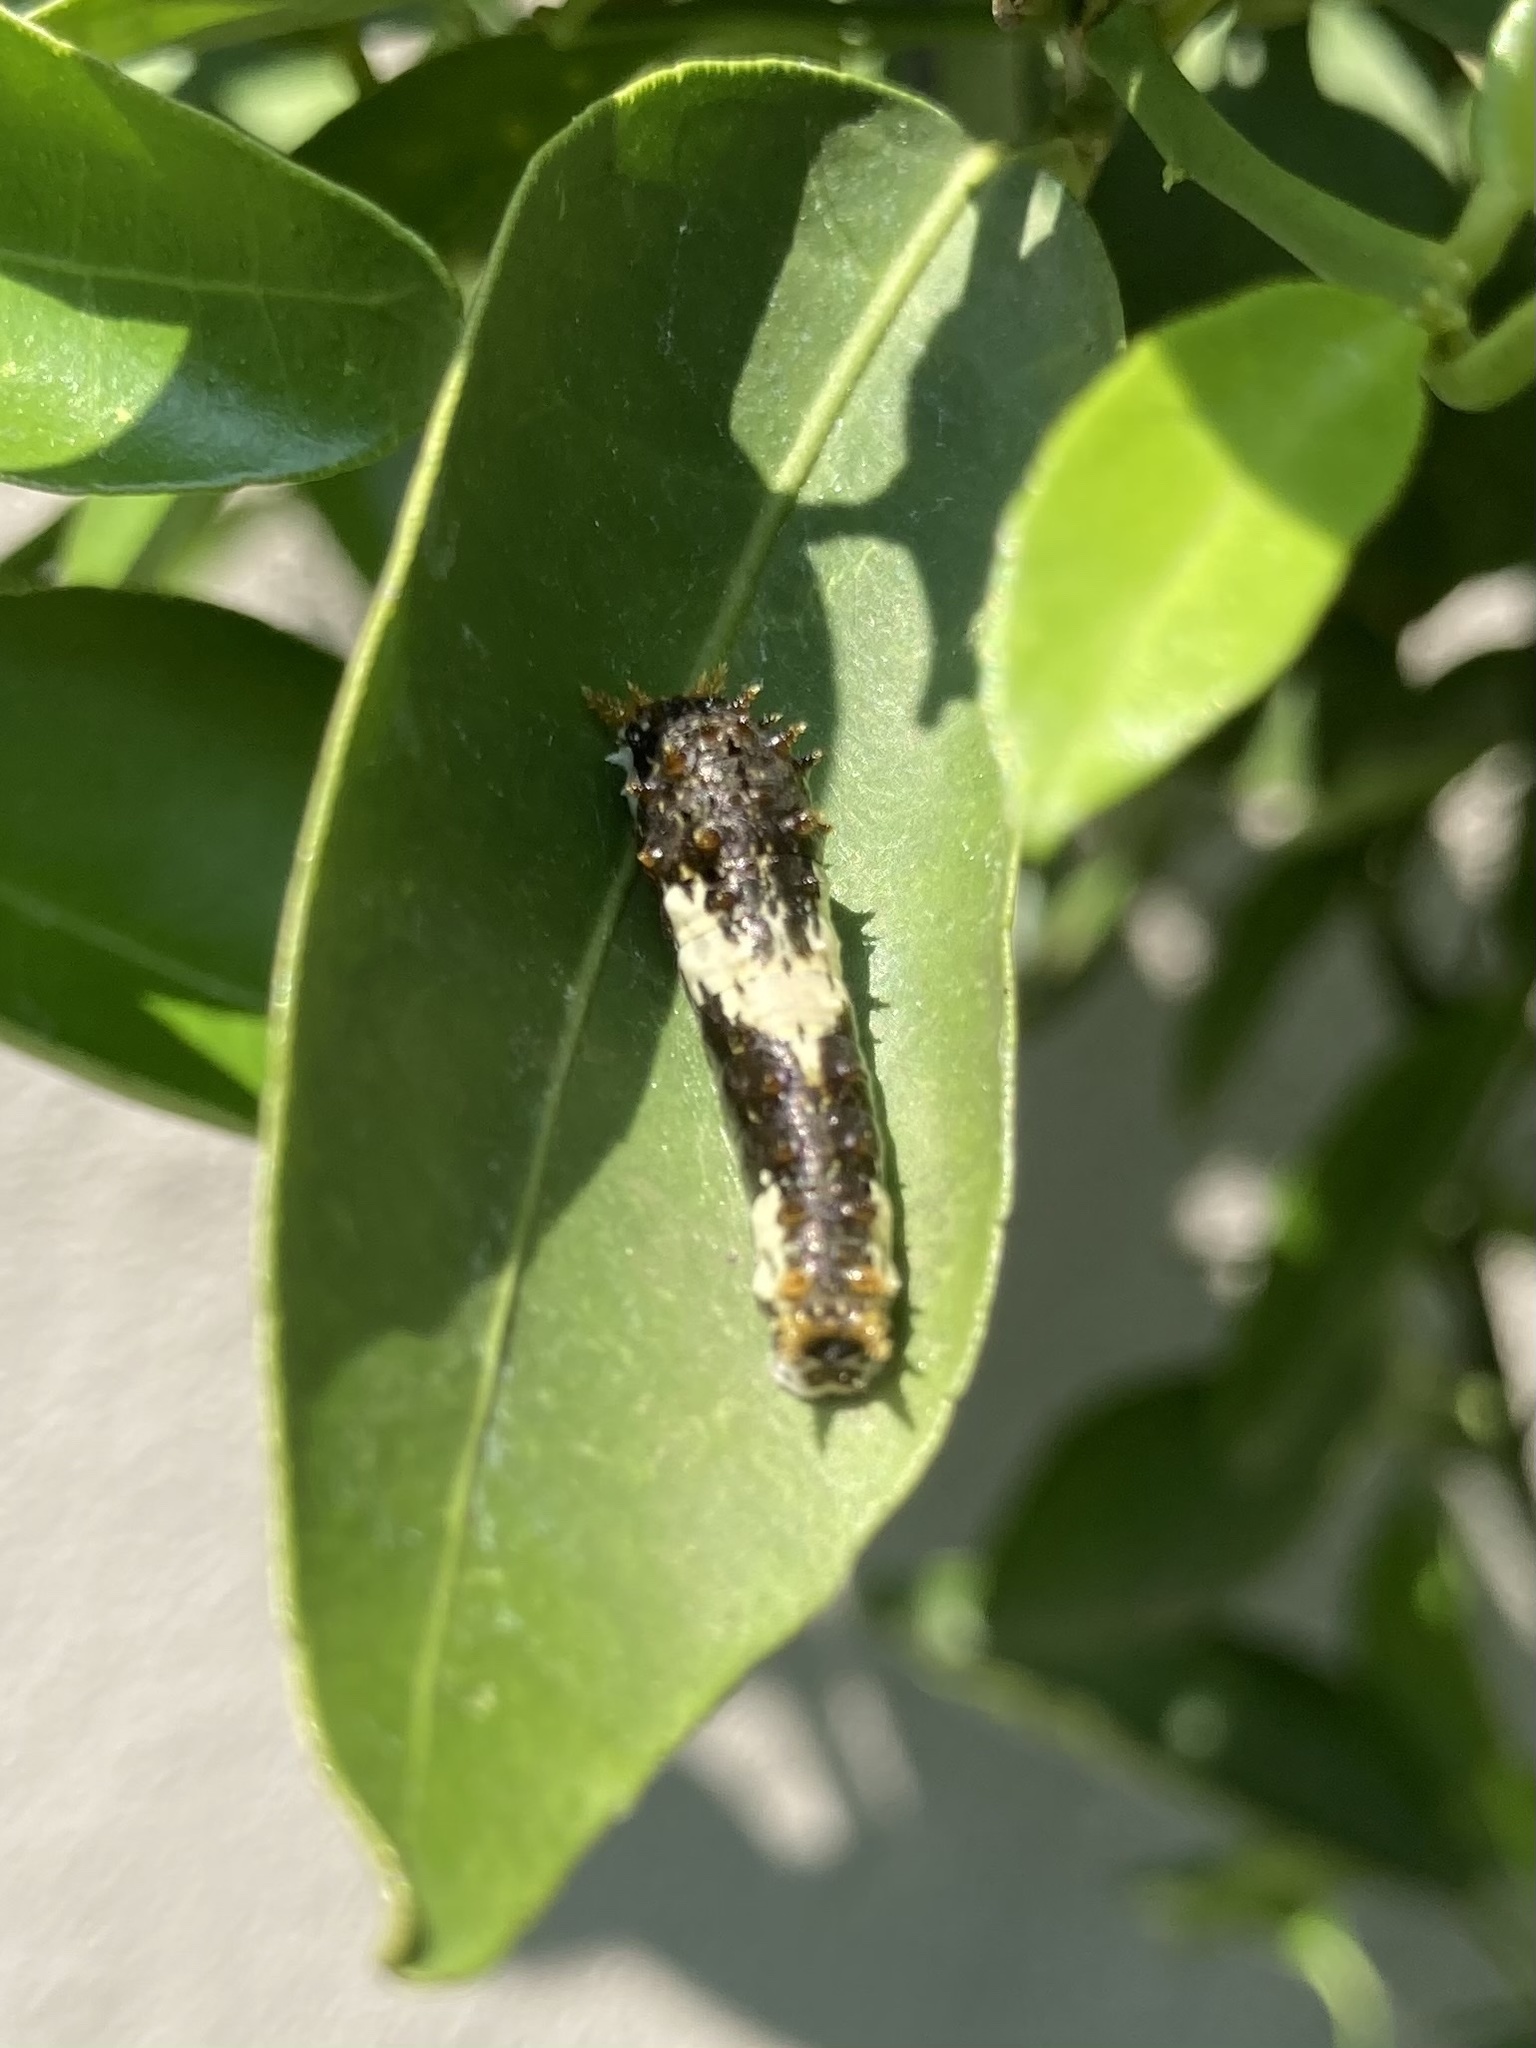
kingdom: Animalia
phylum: Arthropoda
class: Insecta
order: Lepidoptera
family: Papilionidae
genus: Papilio
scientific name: Papilio demodocus
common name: Christmas butterfly
